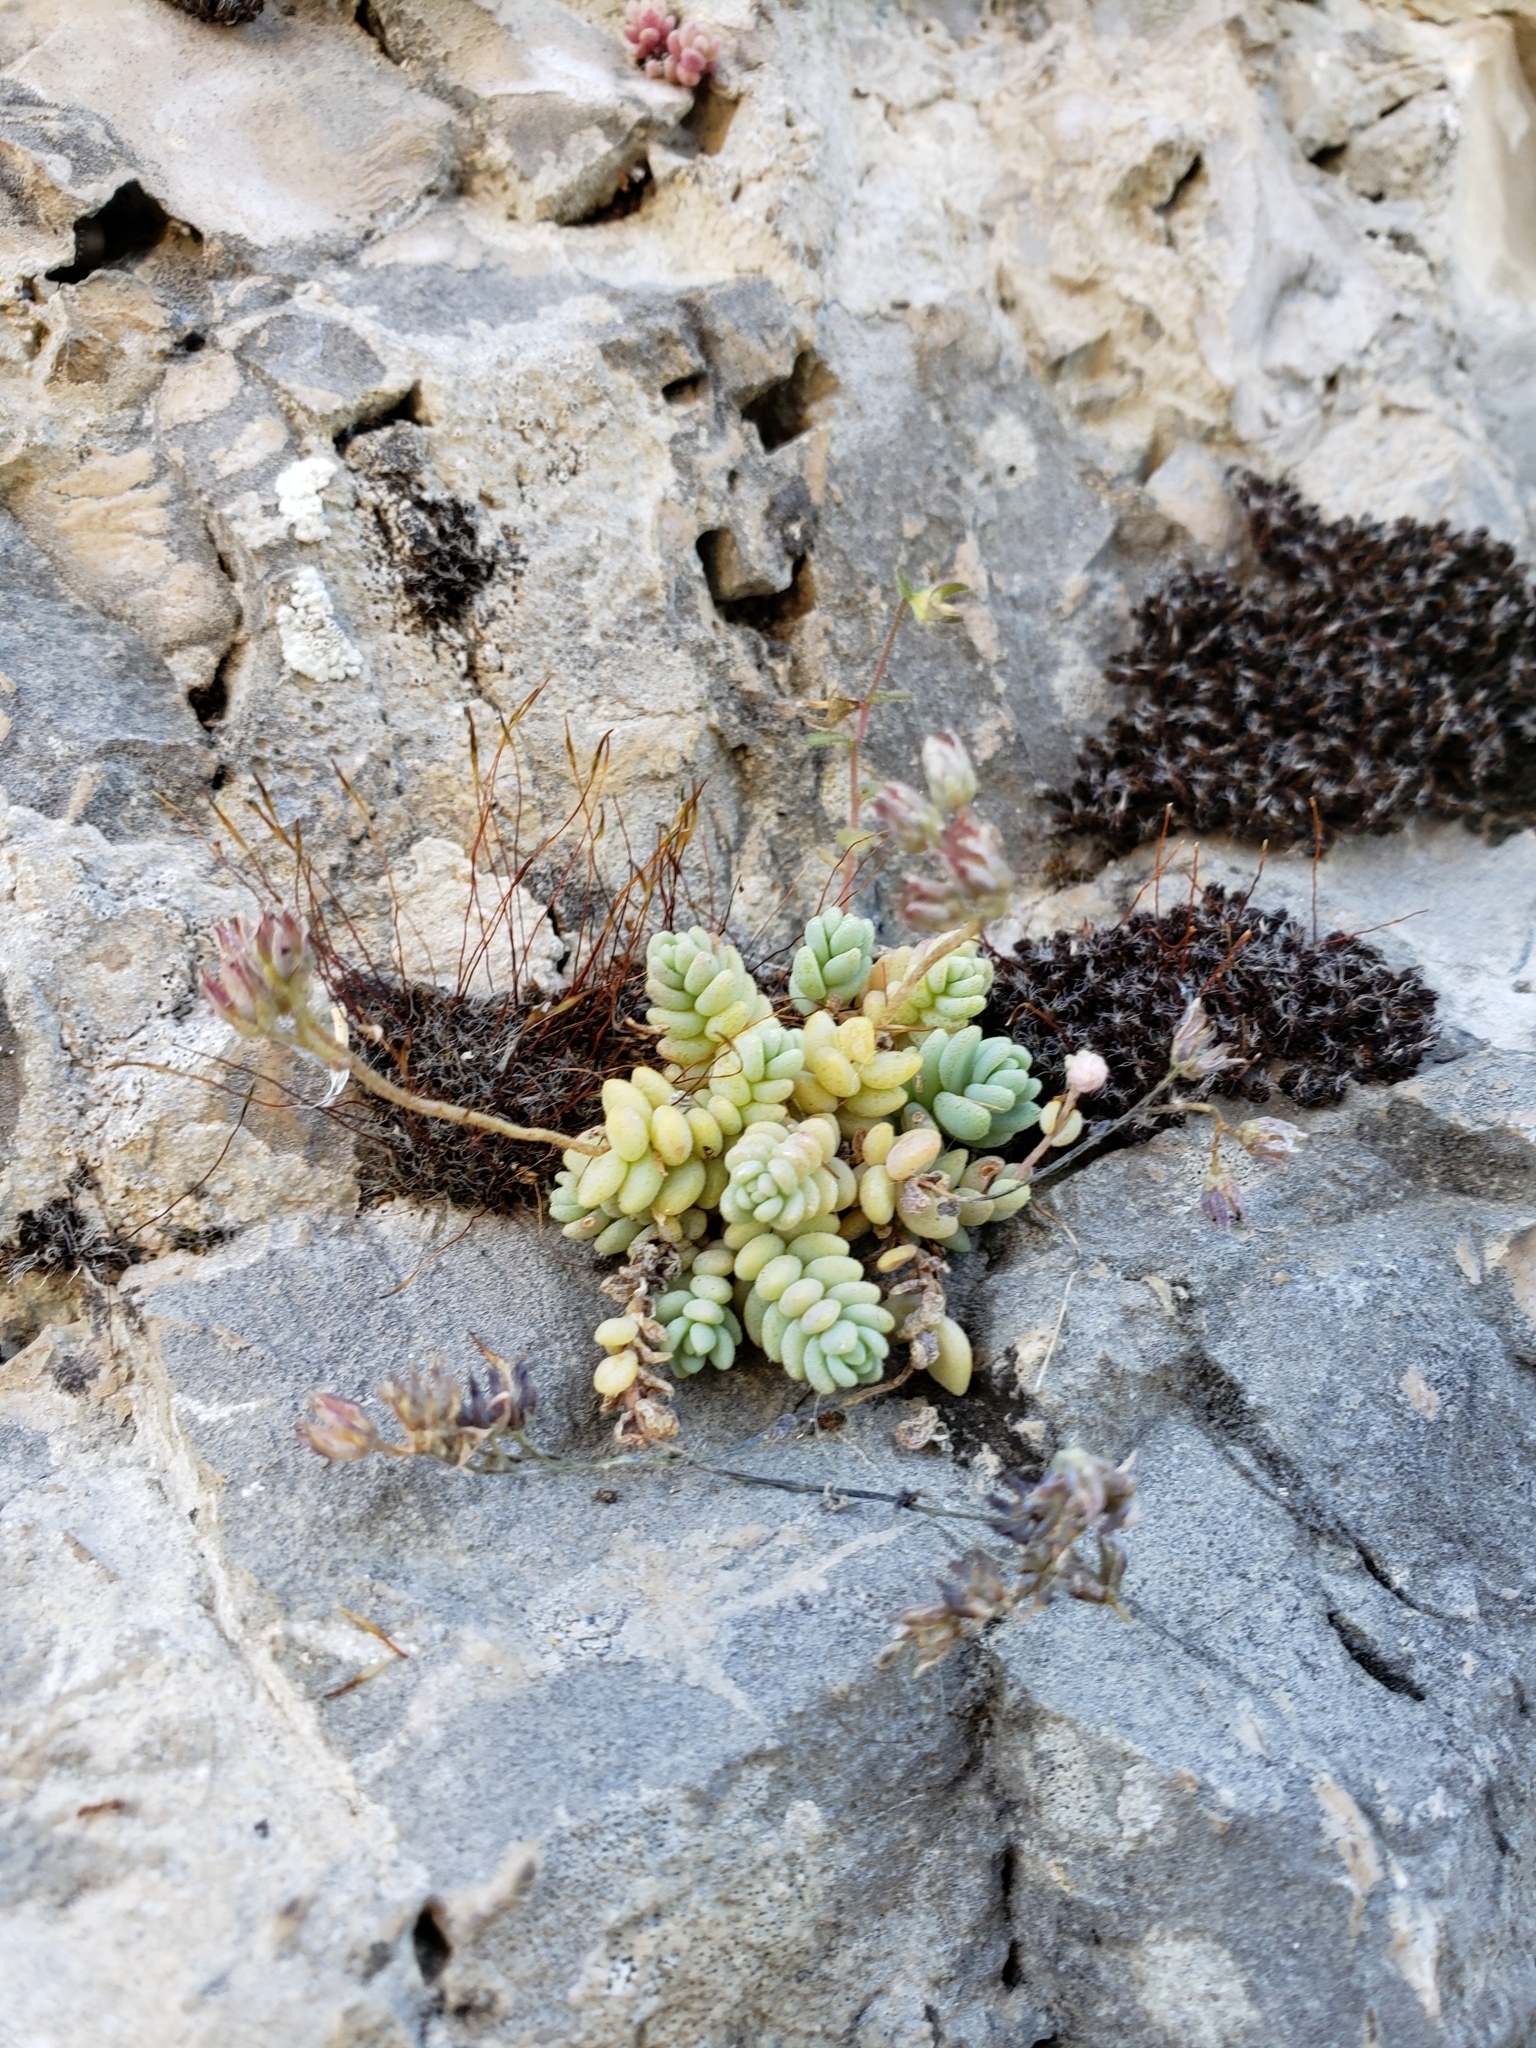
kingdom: Plantae
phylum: Tracheophyta
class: Magnoliopsida
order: Saxifragales
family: Crassulaceae
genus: Sedum
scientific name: Sedum dasyphyllum
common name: Thick-leaf stonecrop
